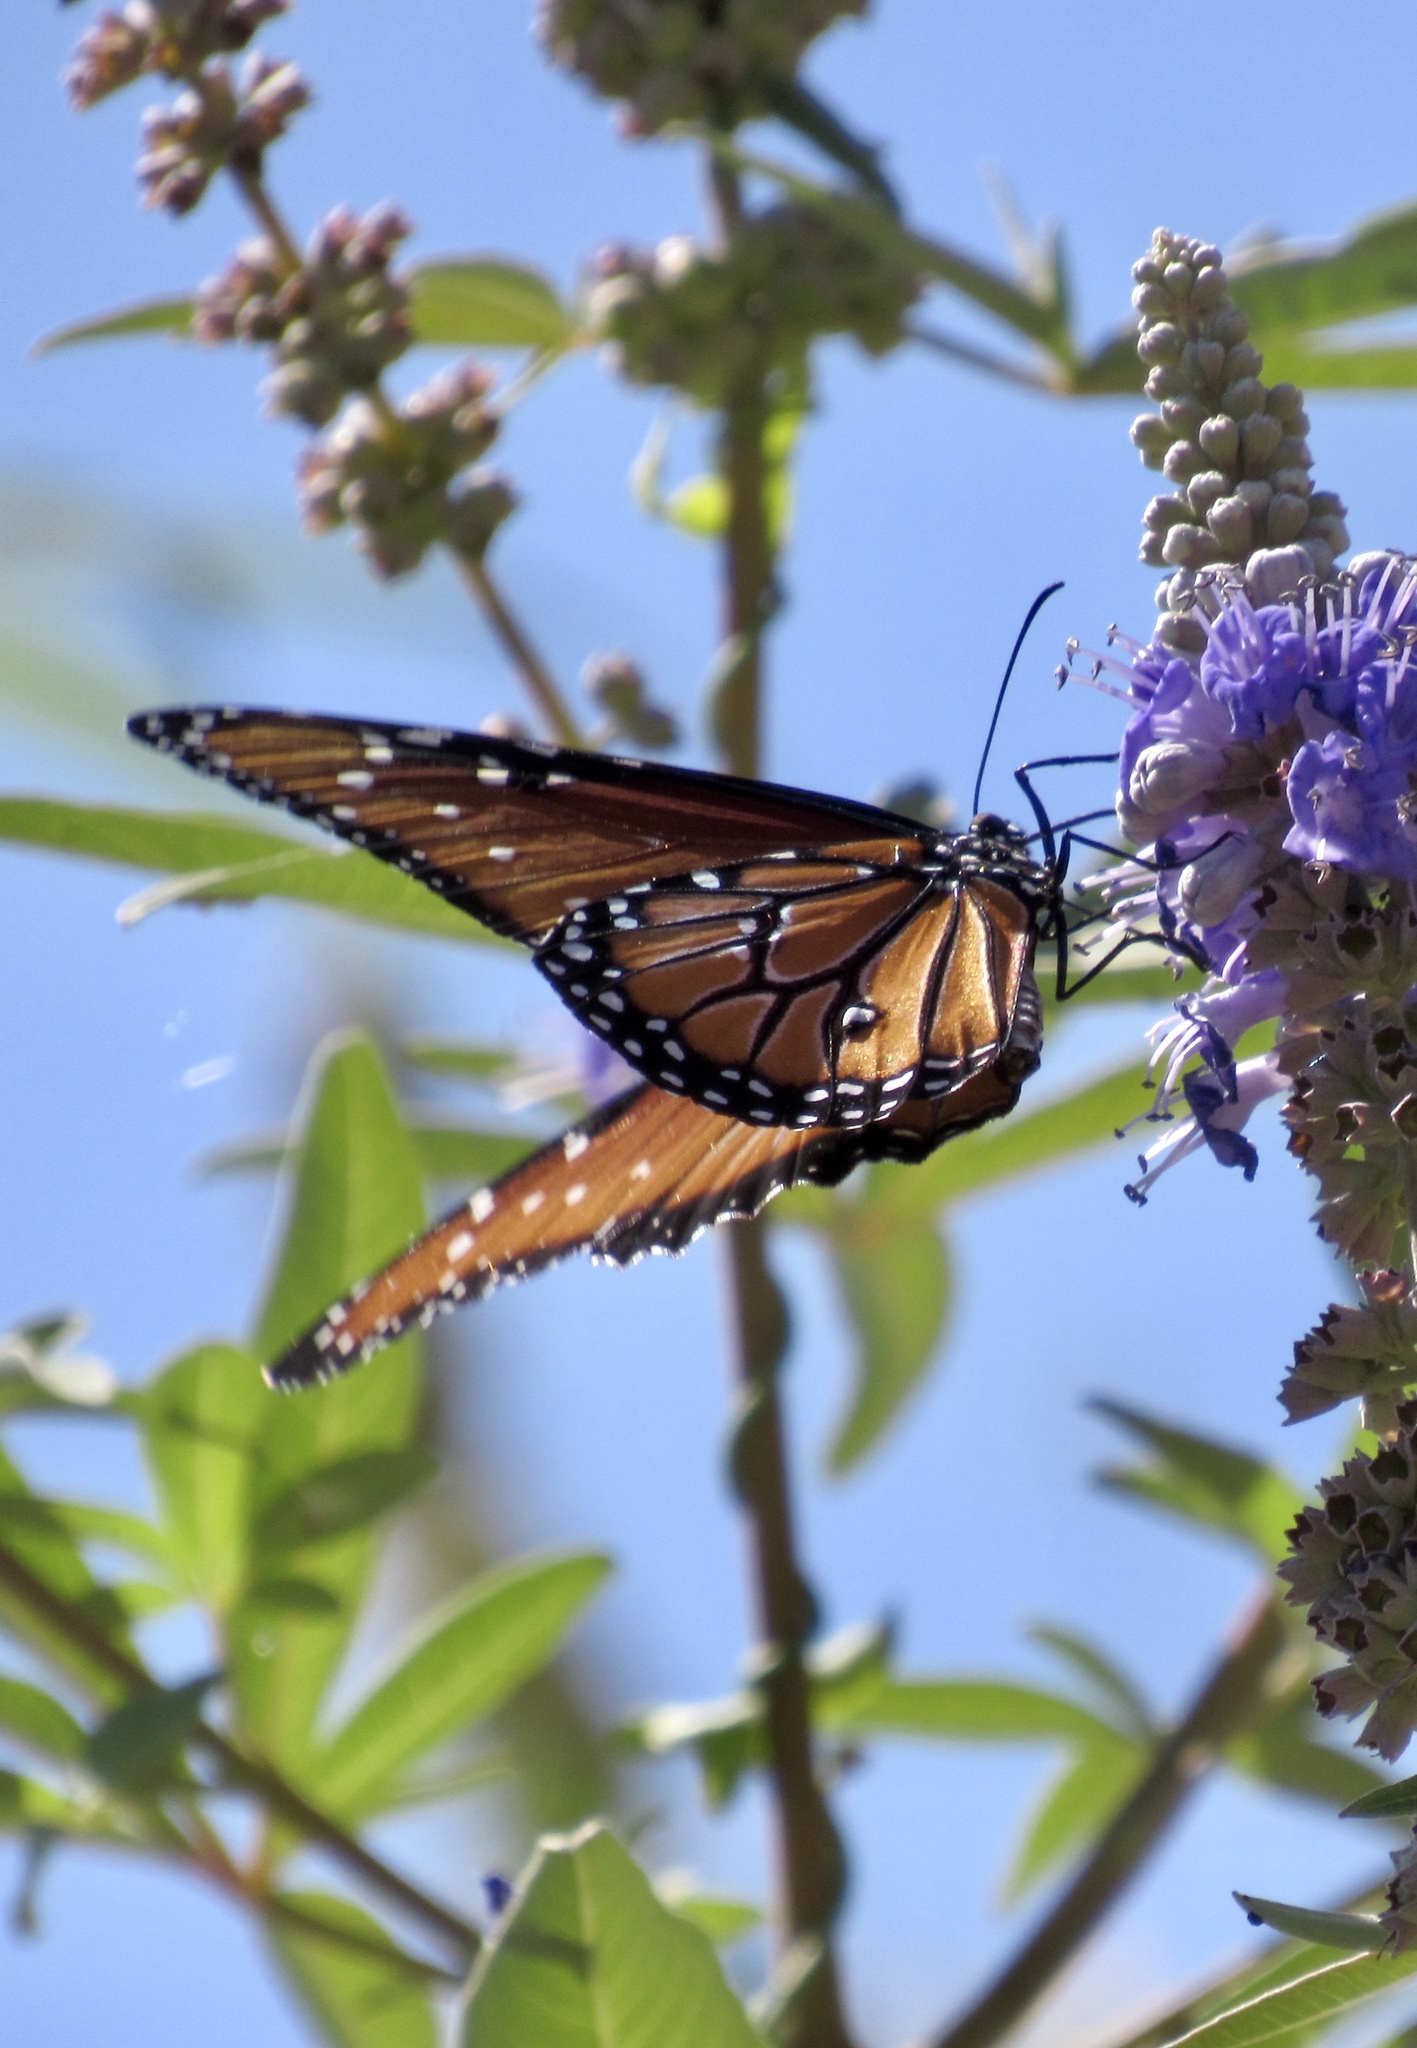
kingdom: Animalia
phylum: Arthropoda
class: Insecta
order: Lepidoptera
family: Nymphalidae
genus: Danaus
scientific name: Danaus gilippus
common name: Queen
